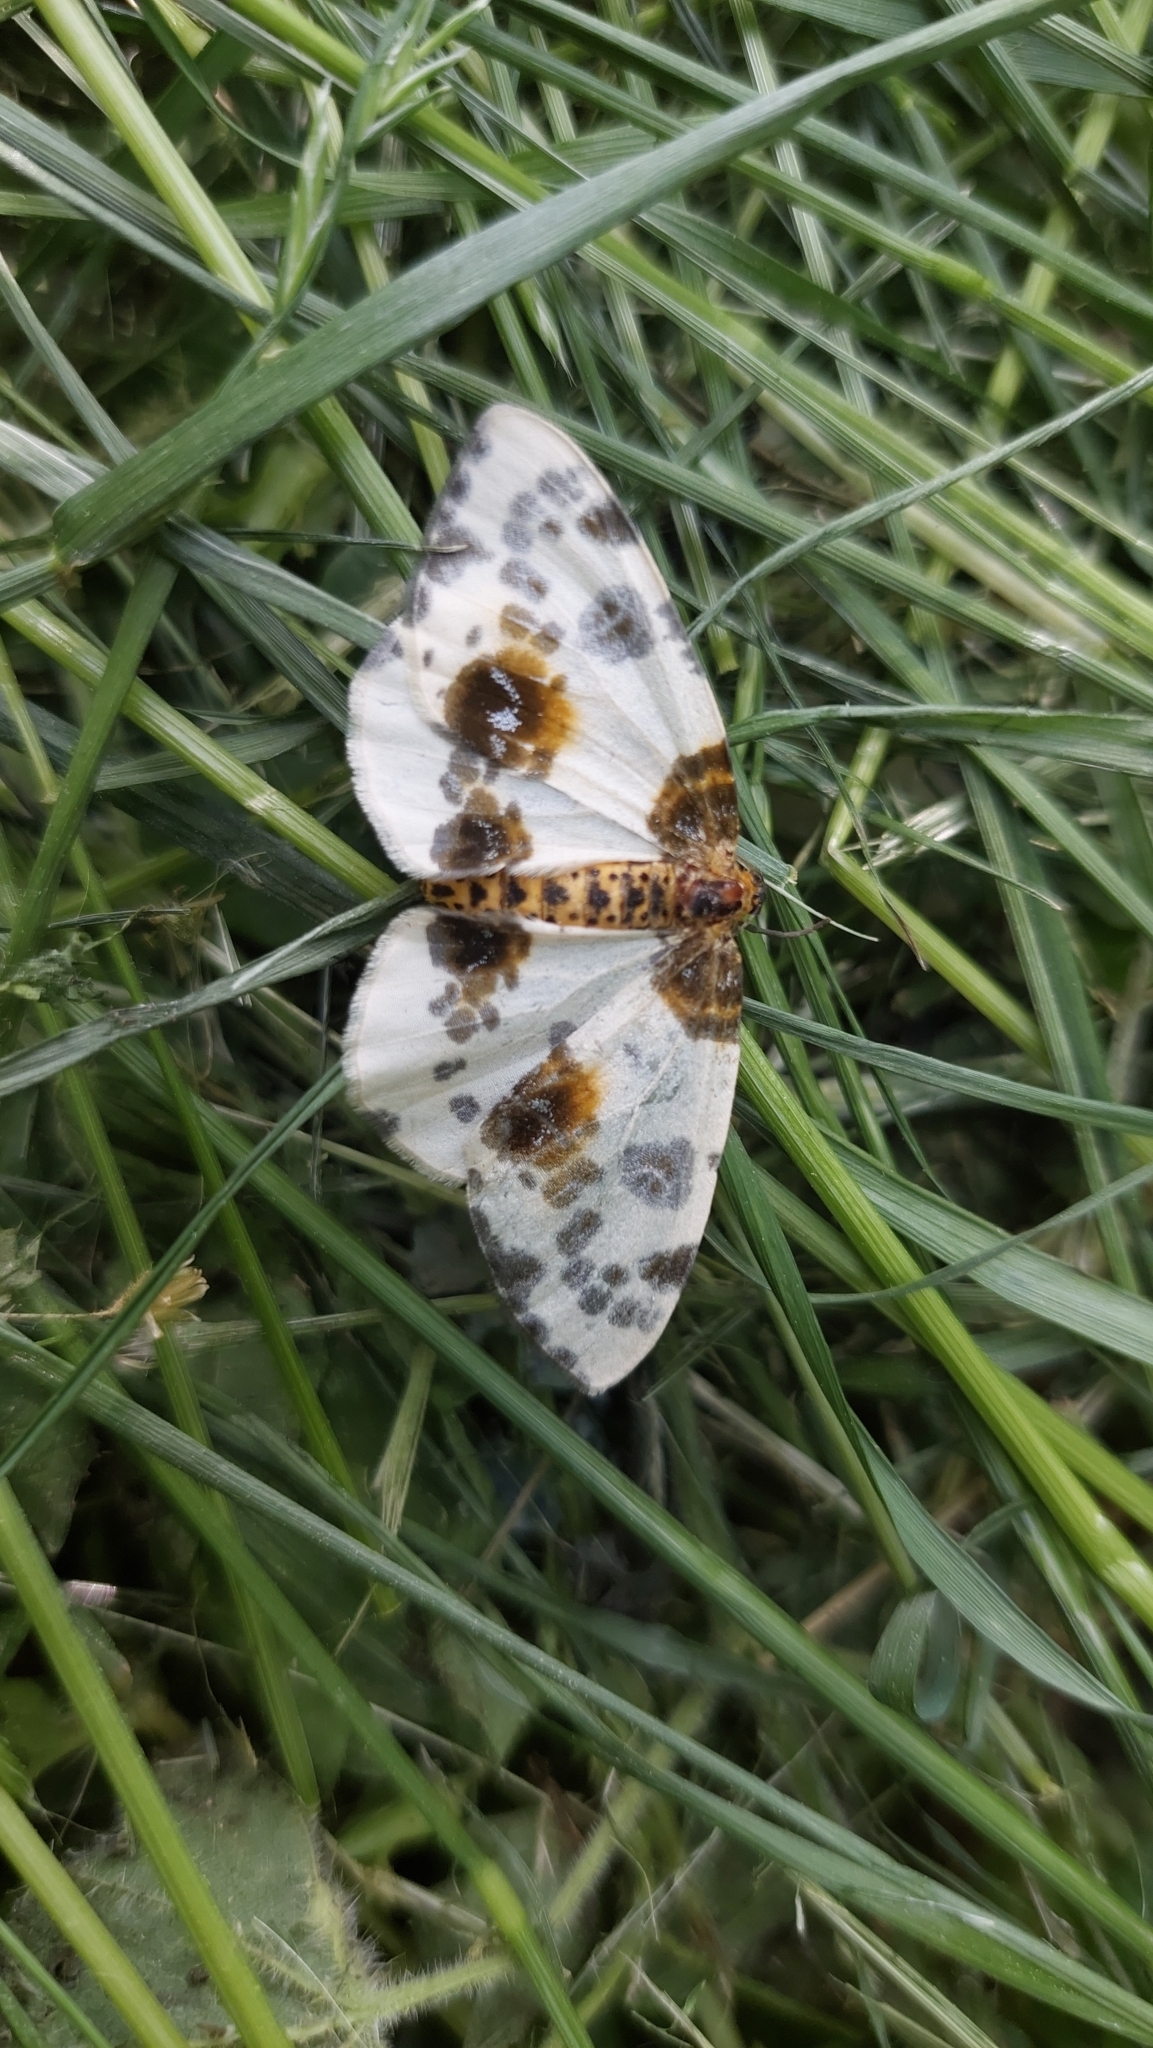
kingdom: Animalia
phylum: Arthropoda
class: Insecta
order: Lepidoptera
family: Geometridae
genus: Abraxas
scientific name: Abraxas sylvata
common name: Clouded magpie
